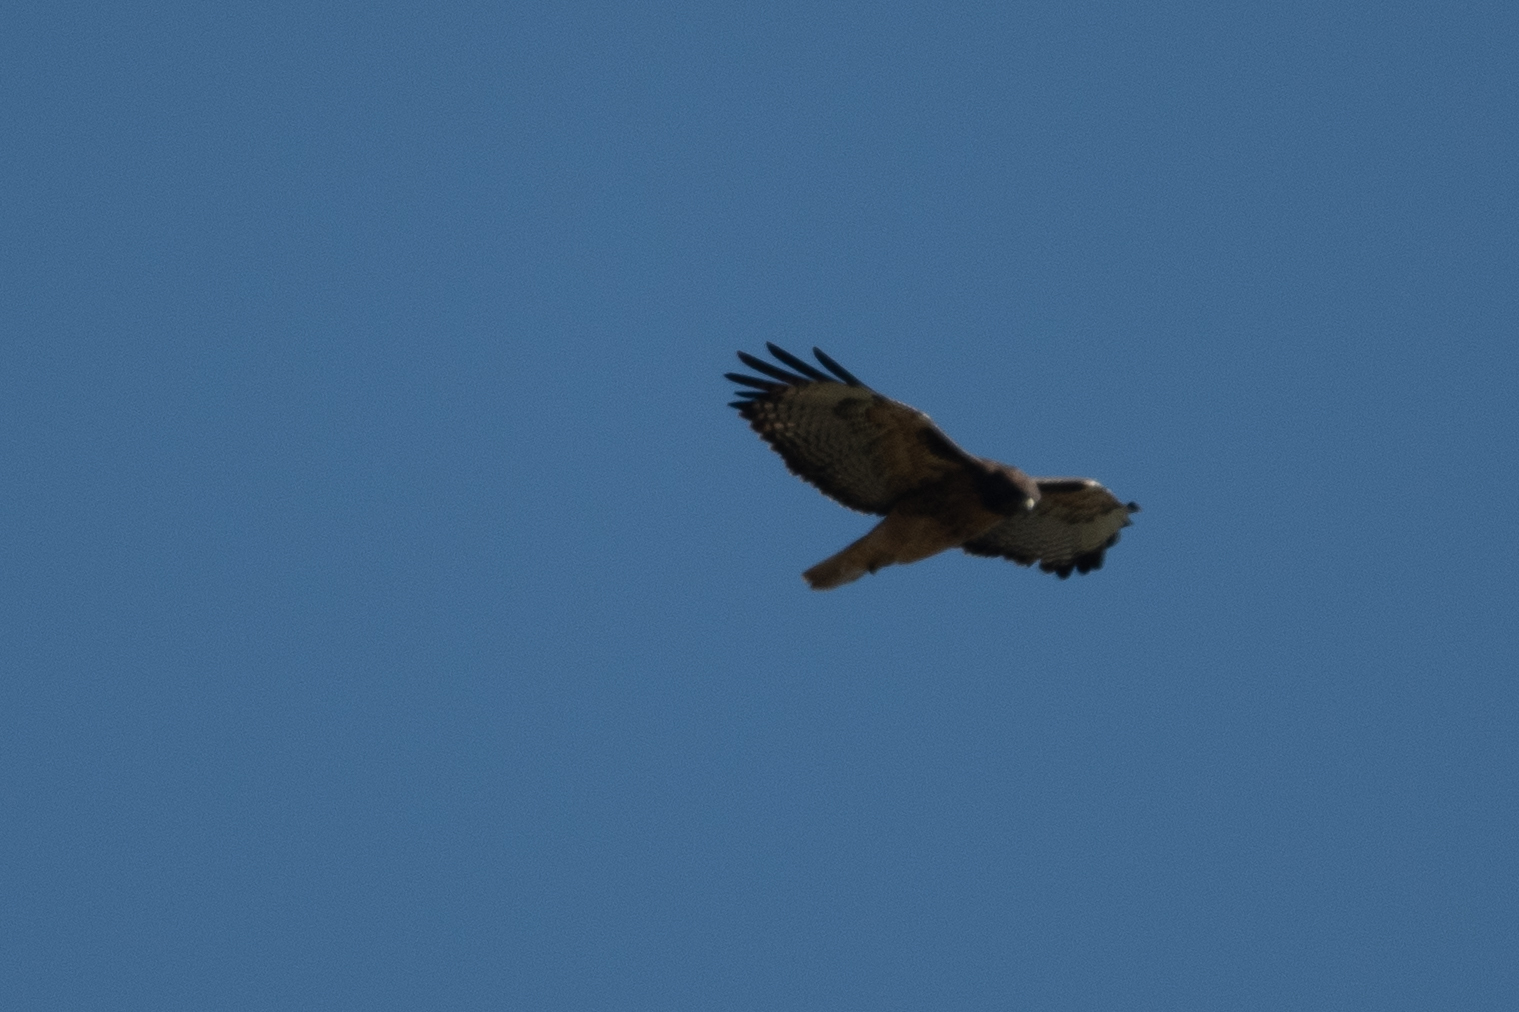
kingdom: Animalia
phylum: Chordata
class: Aves
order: Accipitriformes
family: Accipitridae
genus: Buteo
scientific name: Buteo jamaicensis
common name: Red-tailed hawk
